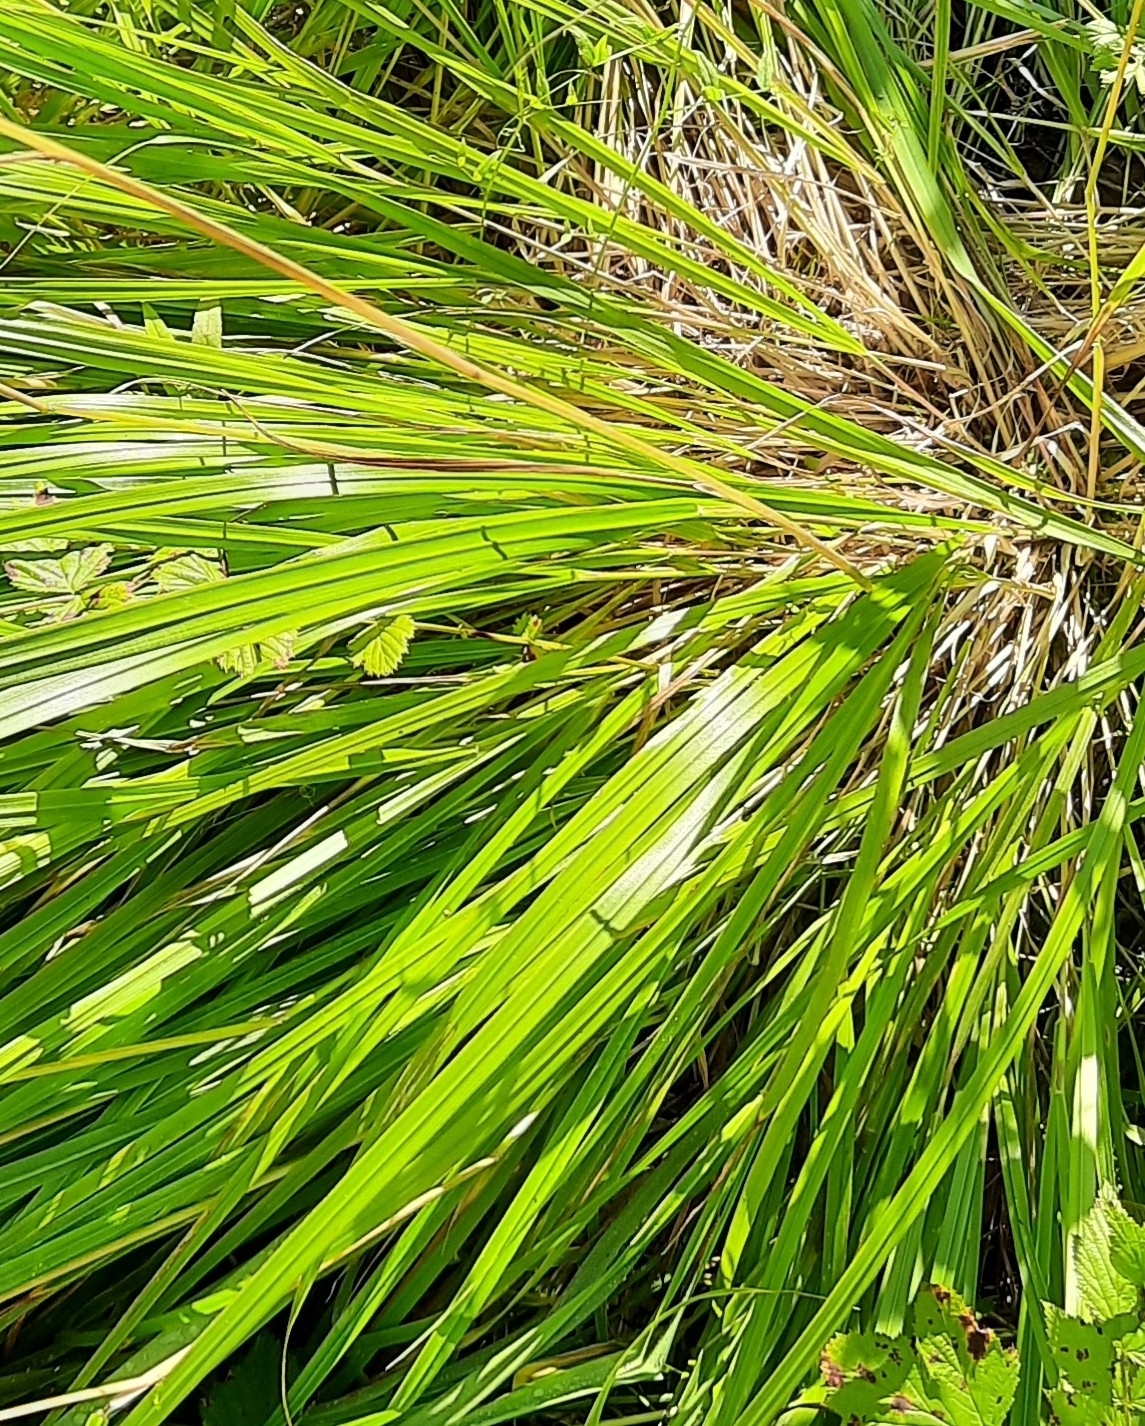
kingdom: Plantae
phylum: Tracheophyta
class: Liliopsida
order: Poales
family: Poaceae
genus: Calamagrostis
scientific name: Calamagrostis arundinacea
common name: Metskastik
